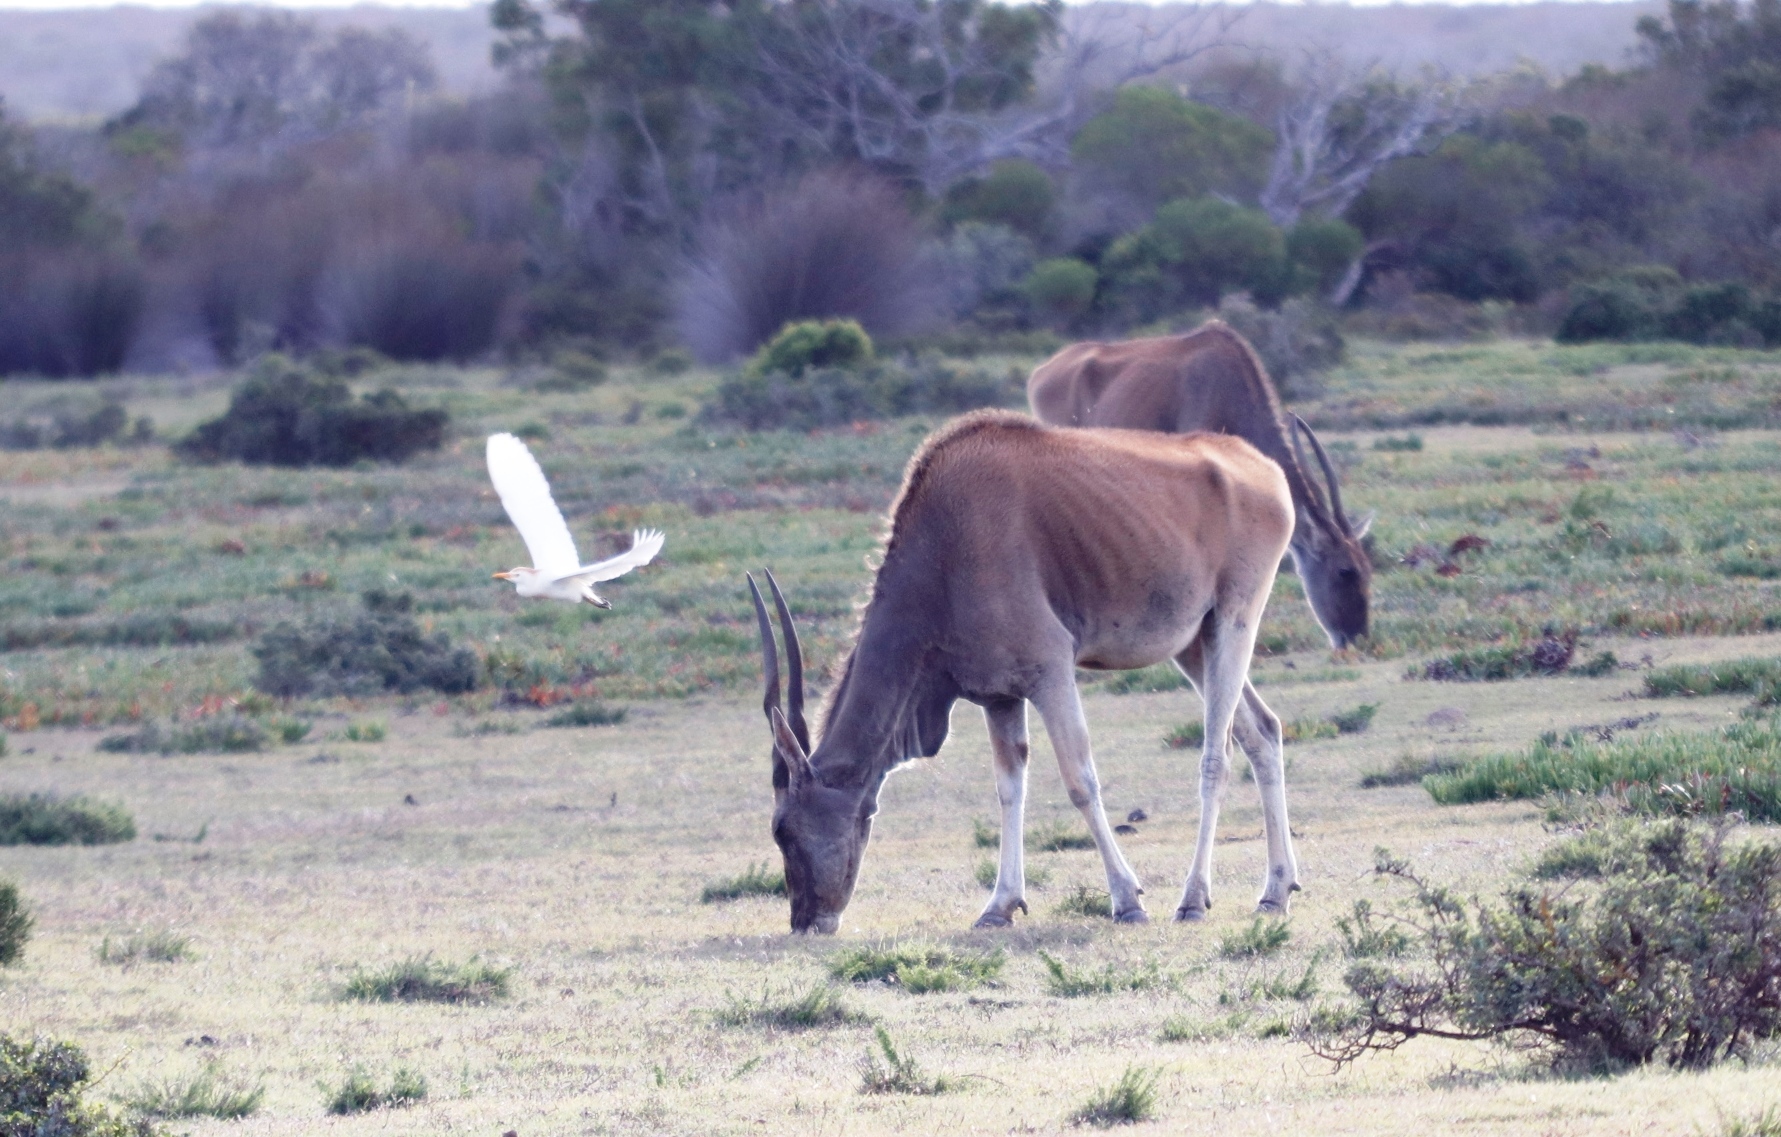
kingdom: Animalia
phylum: Chordata
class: Aves
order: Pelecaniformes
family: Ardeidae
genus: Bubulcus
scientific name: Bubulcus ibis
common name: Cattle egret
